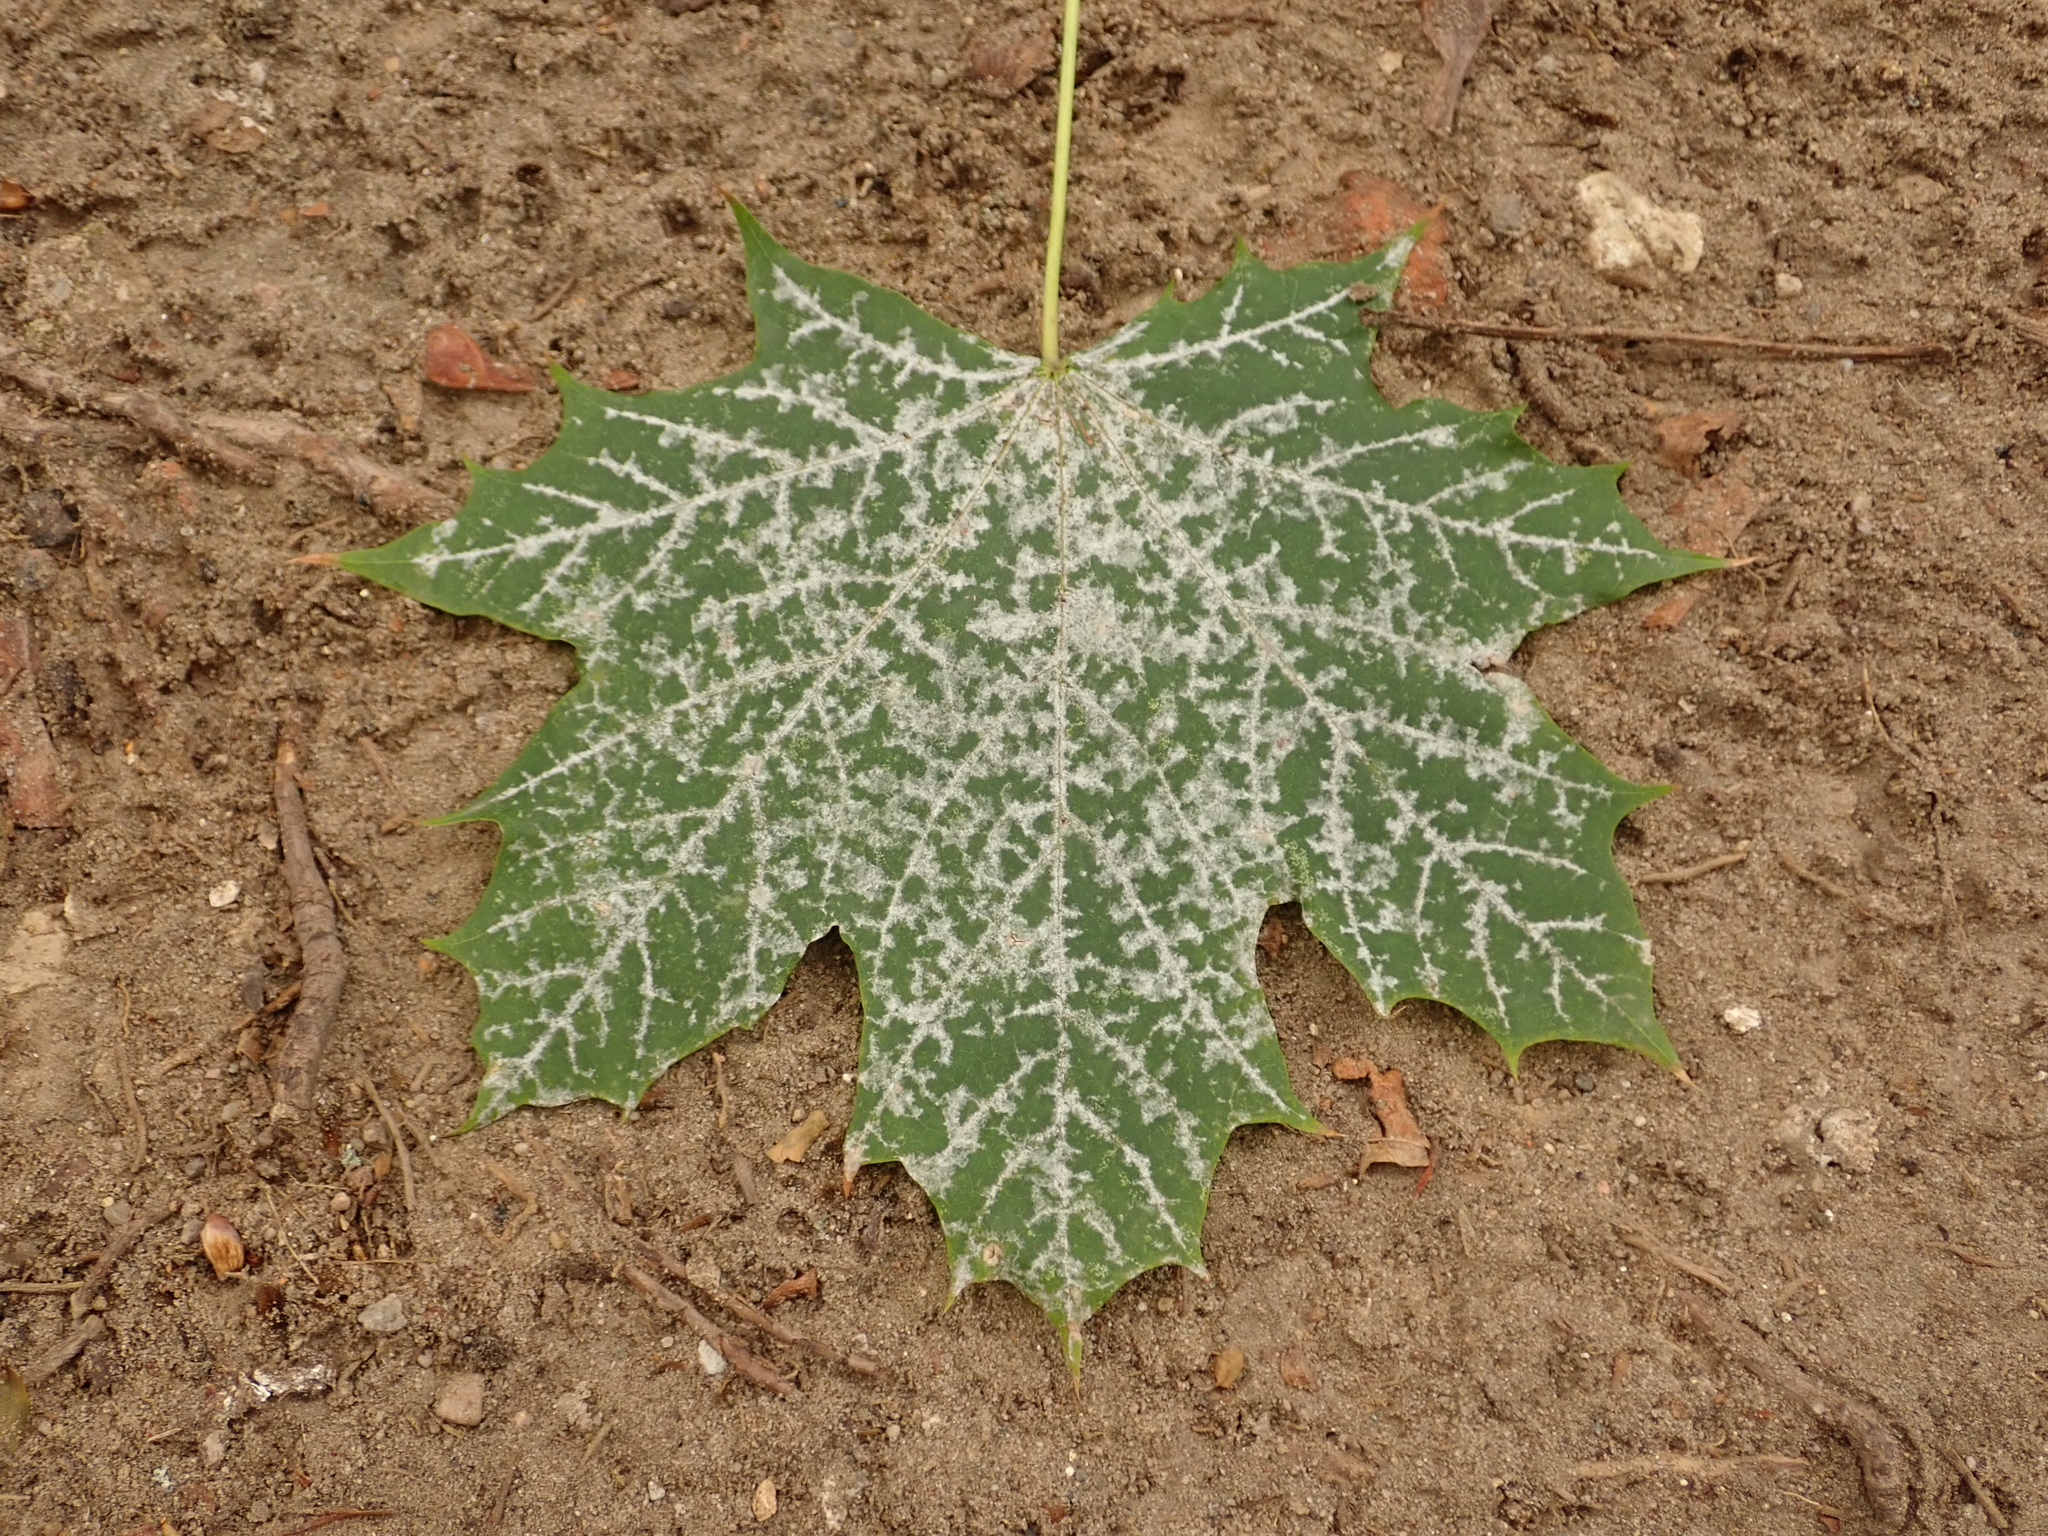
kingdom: Plantae
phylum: Tracheophyta
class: Magnoliopsida
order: Sapindales
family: Sapindaceae
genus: Acer
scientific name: Acer platanoides
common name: Norway maple
